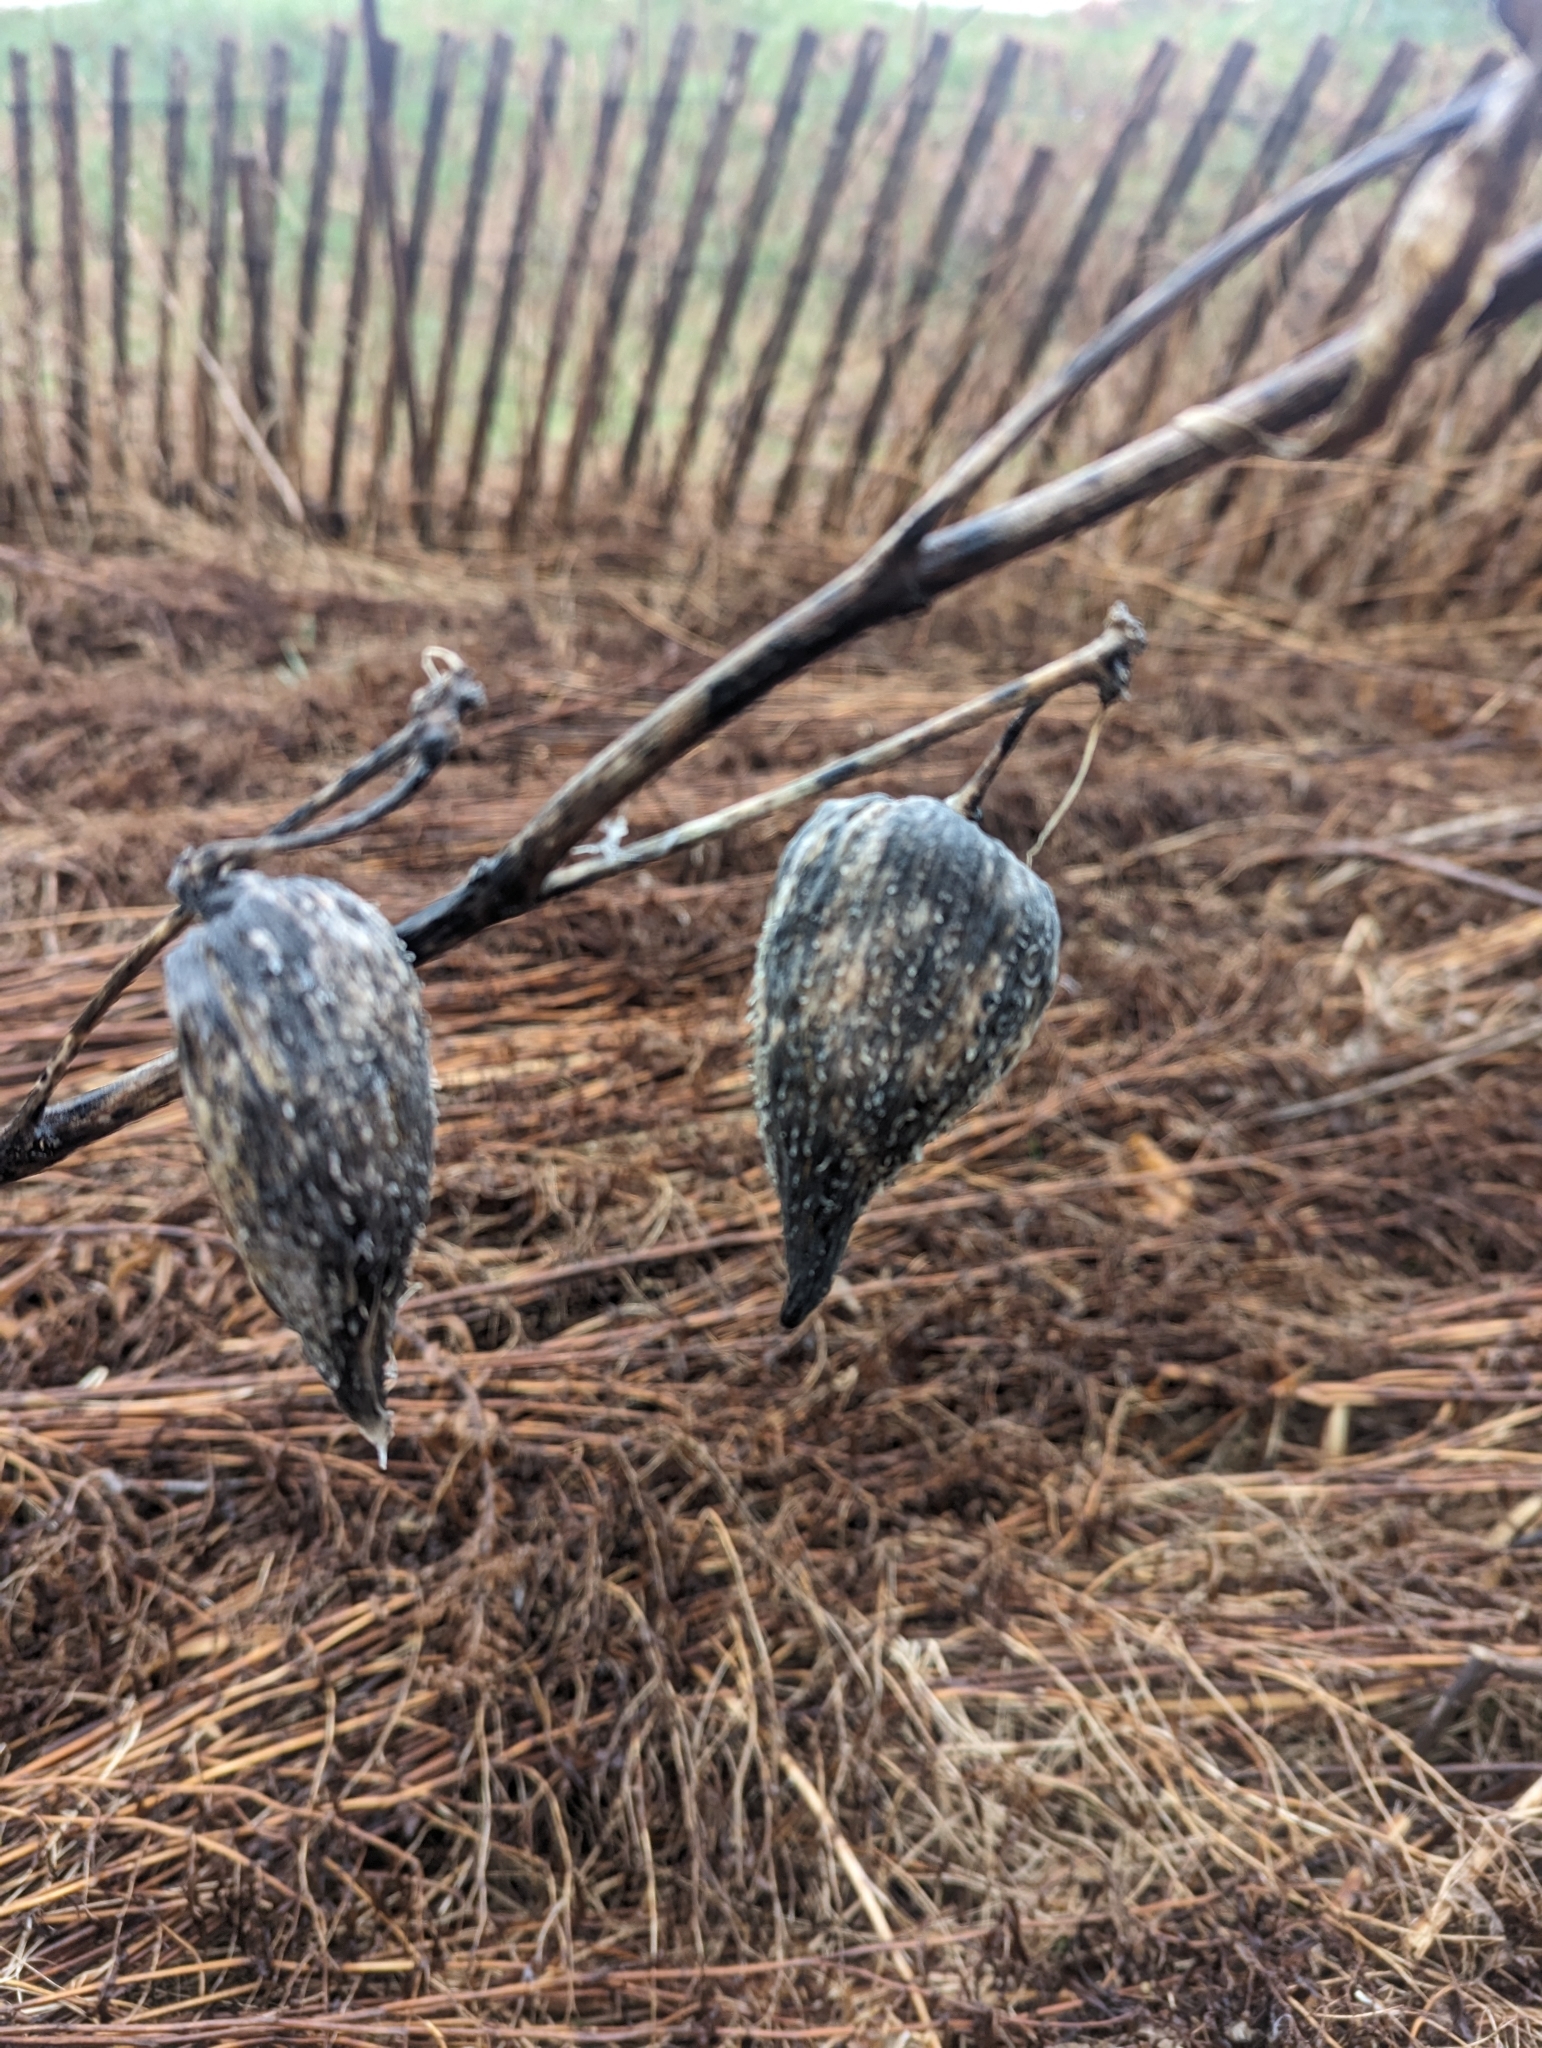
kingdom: Plantae
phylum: Tracheophyta
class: Magnoliopsida
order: Gentianales
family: Apocynaceae
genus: Asclepias
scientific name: Asclepias syriaca
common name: Common milkweed
